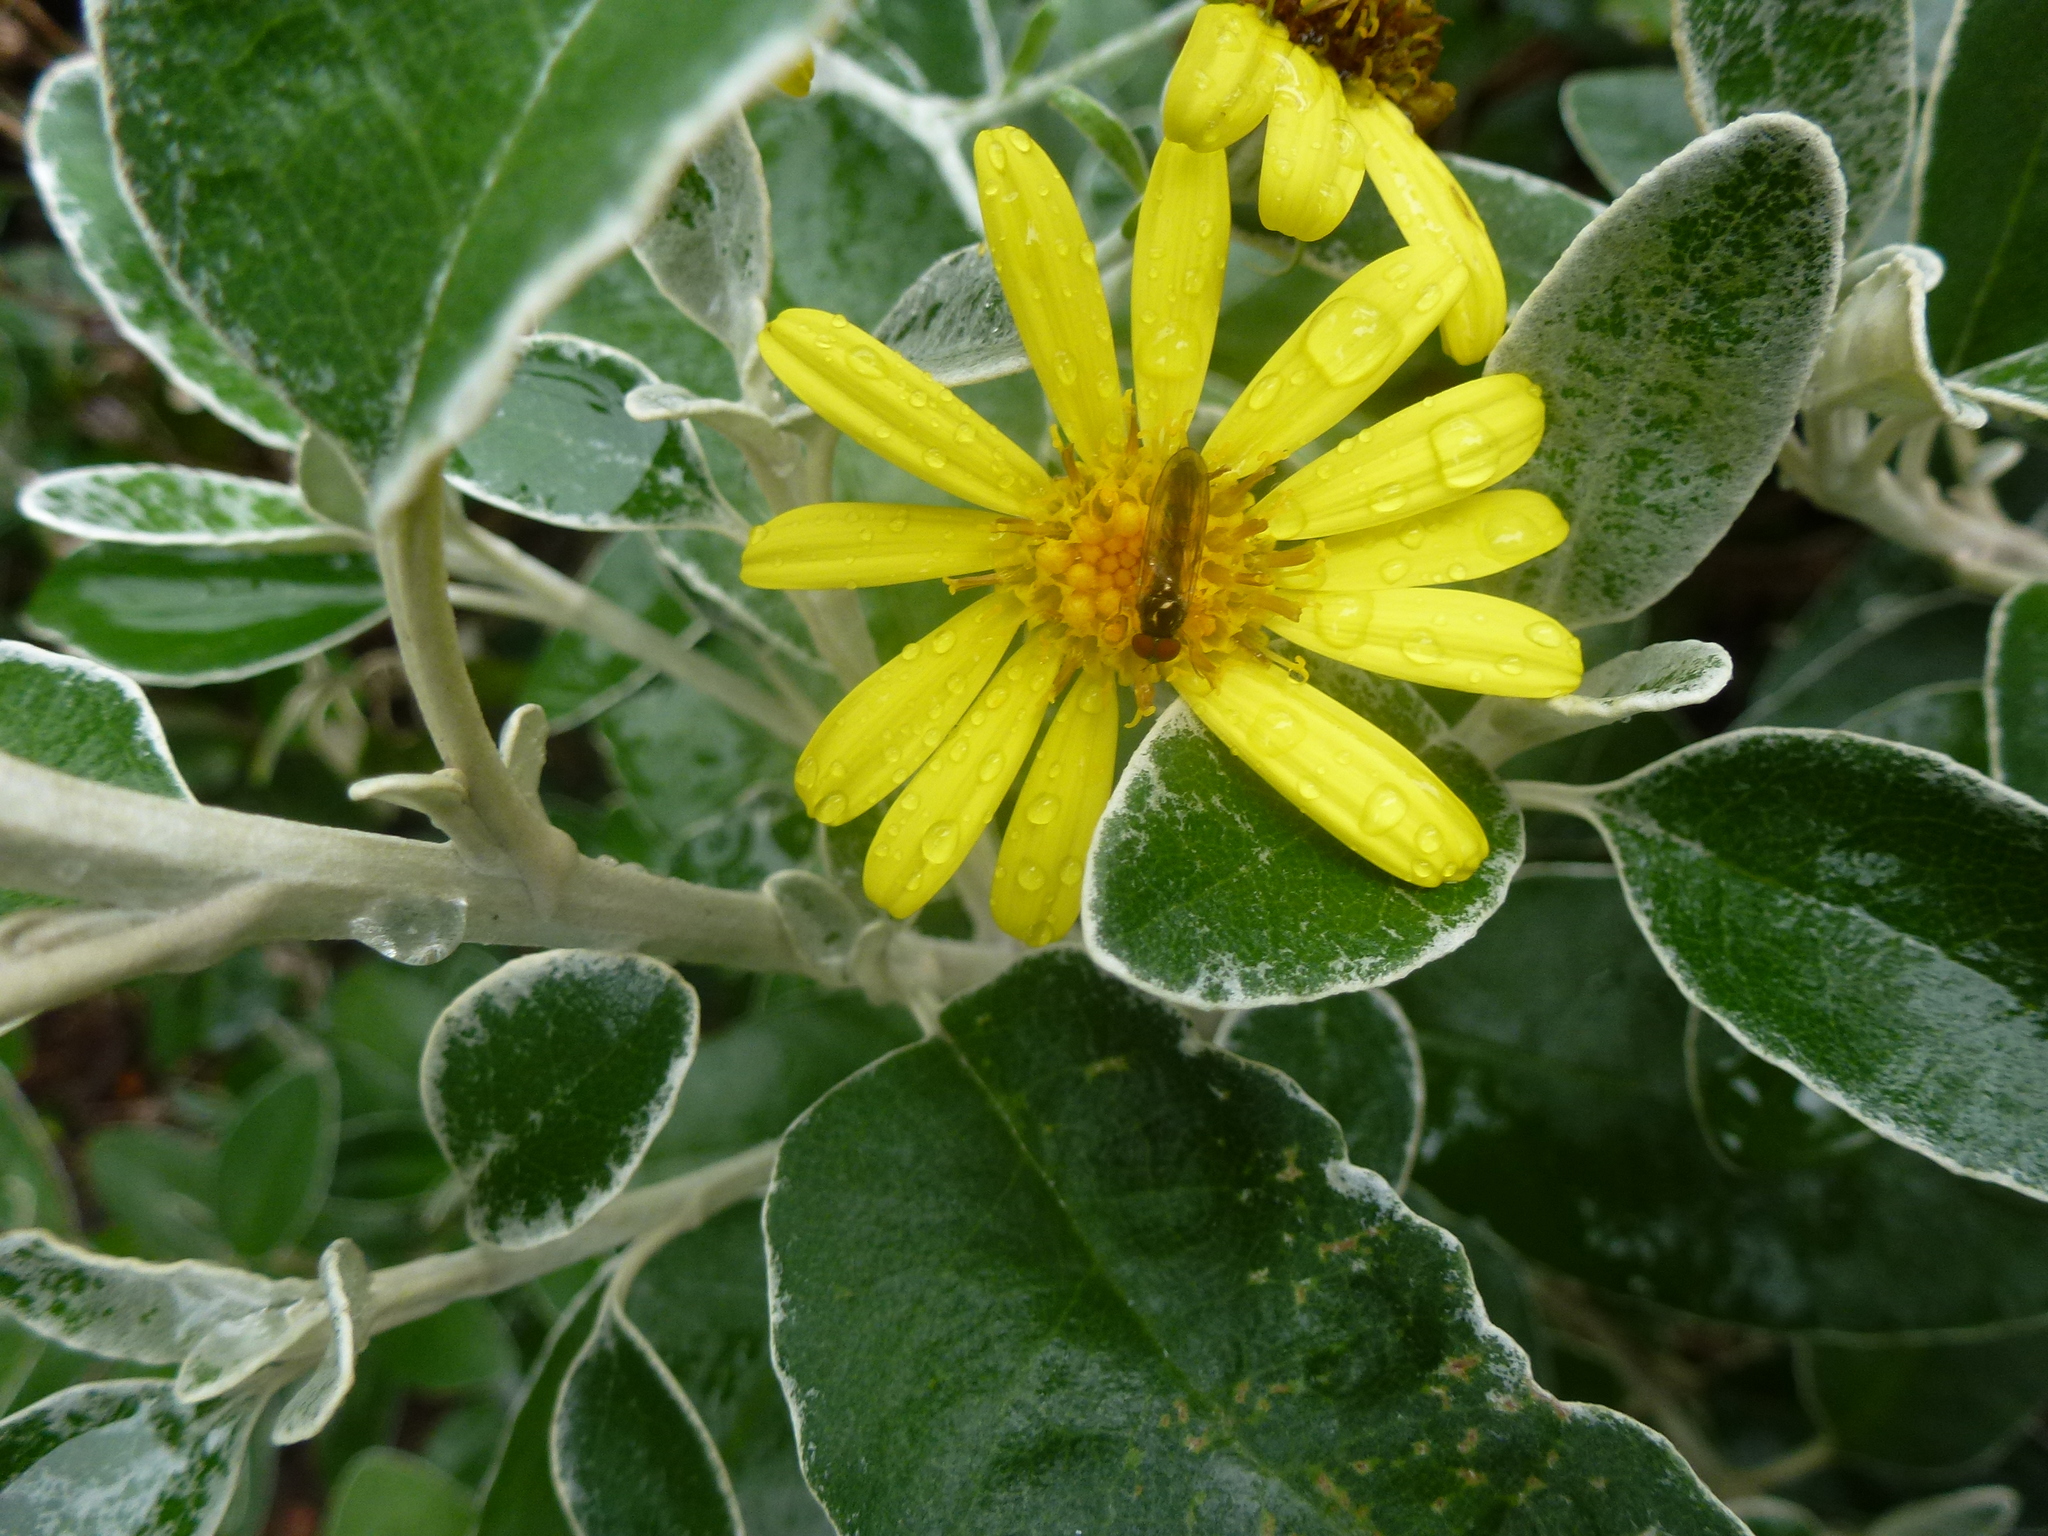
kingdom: Plantae
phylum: Tracheophyta
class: Magnoliopsida
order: Asterales
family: Asteraceae
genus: Brachyglottis
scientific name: Brachyglottis jubar
